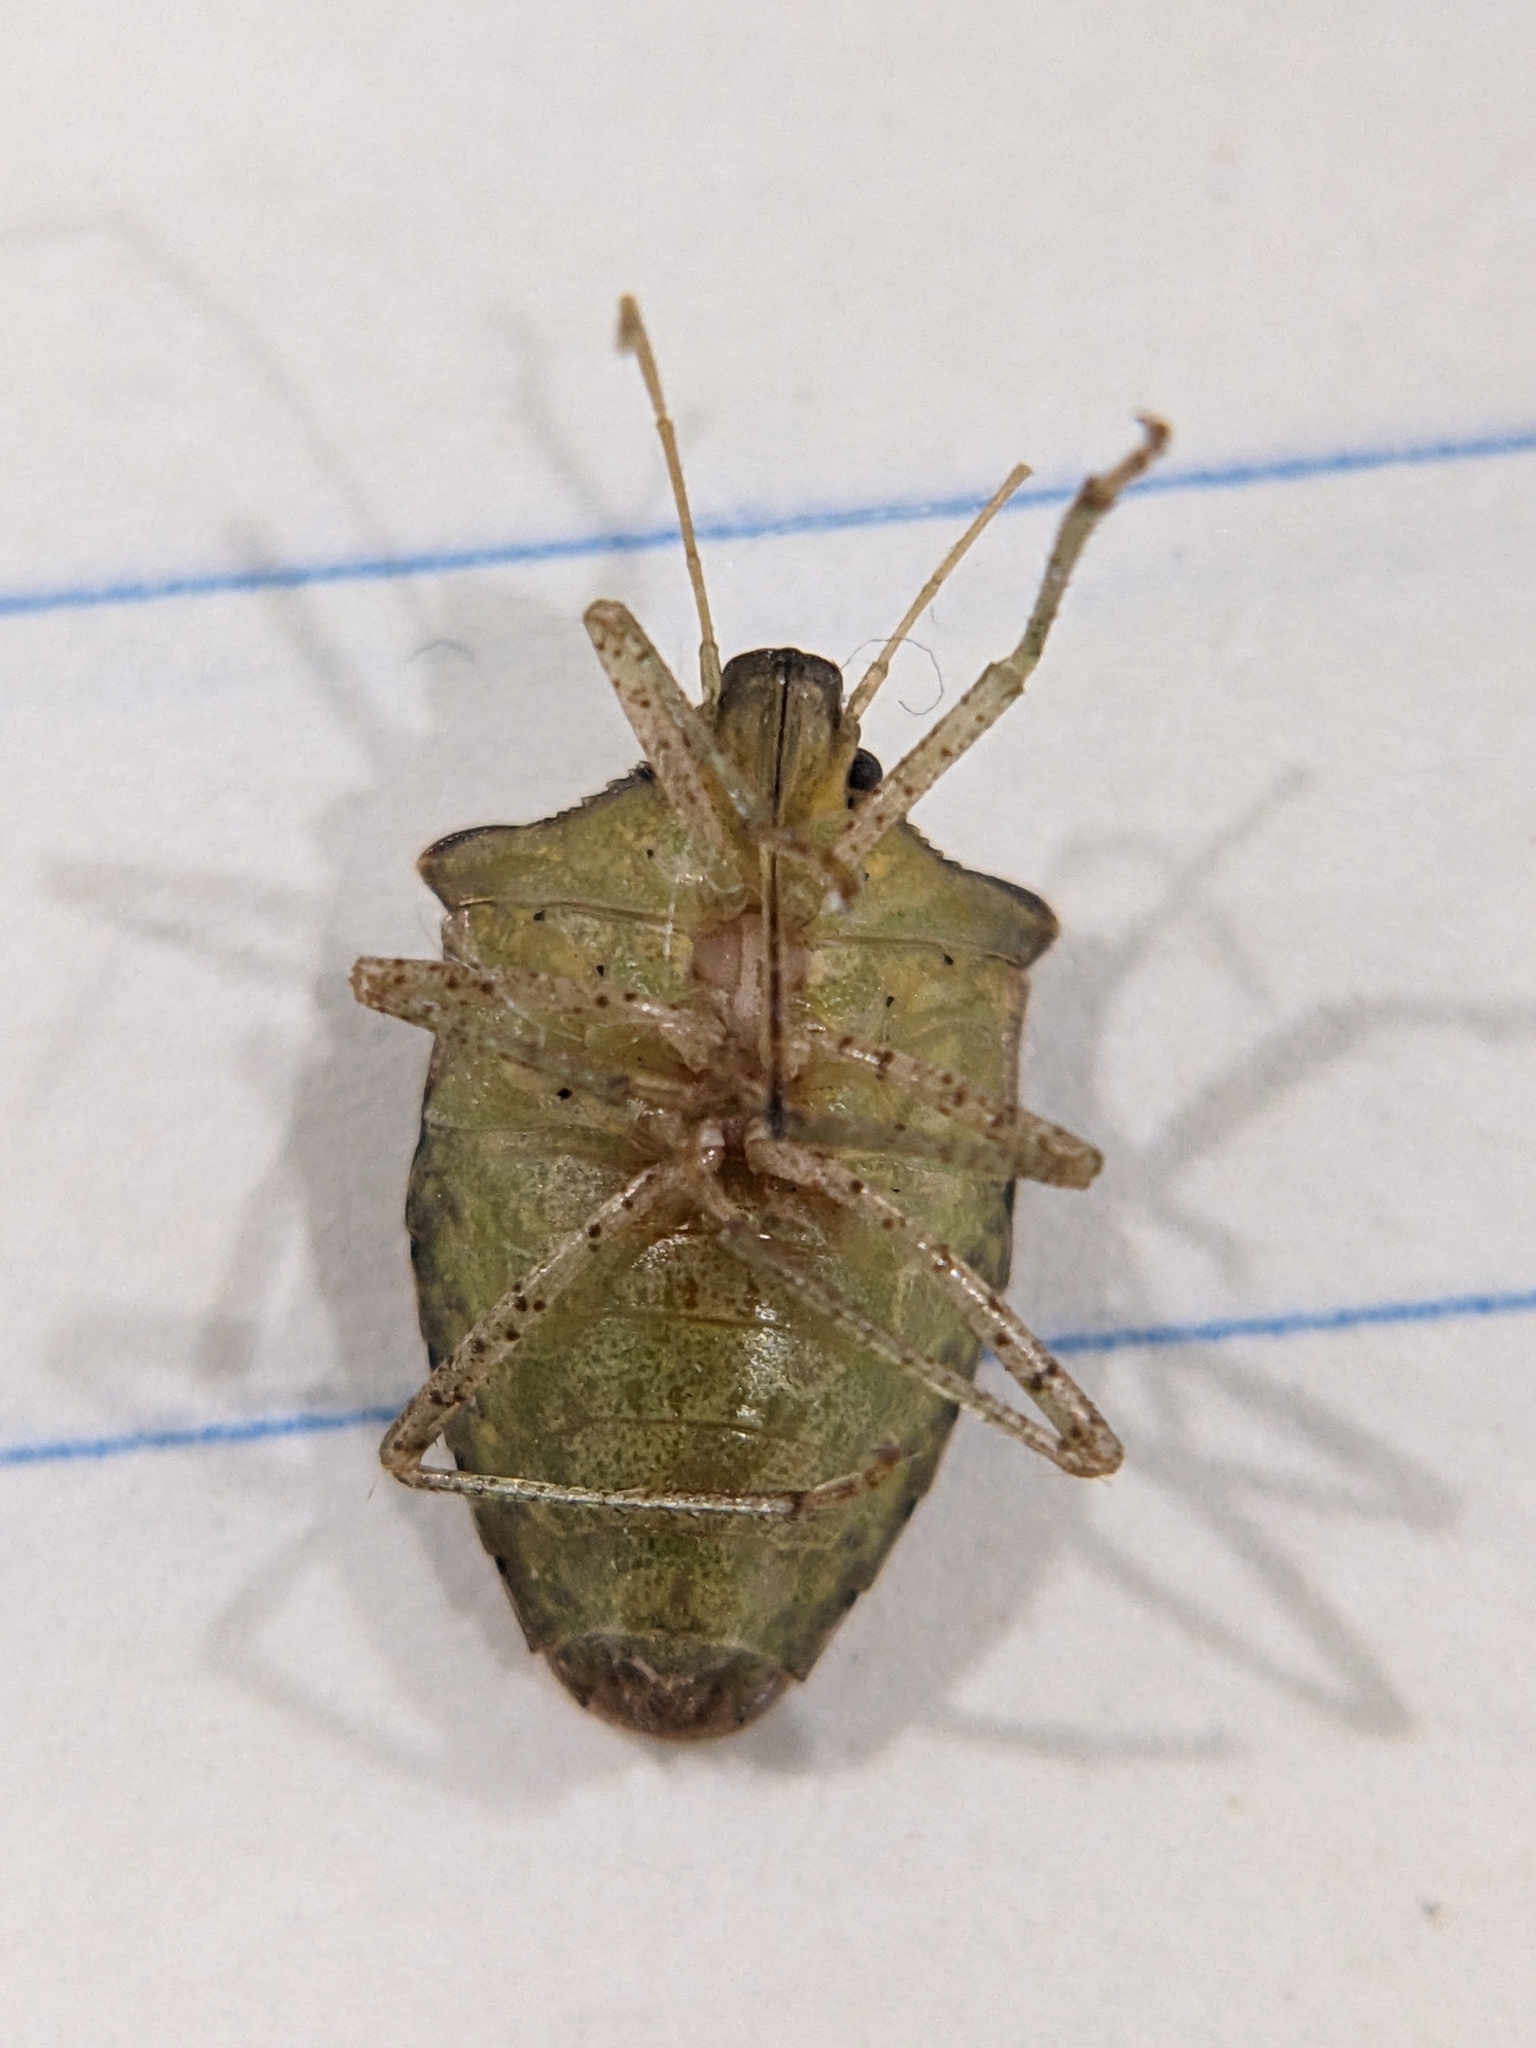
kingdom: Animalia
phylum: Arthropoda
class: Insecta
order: Hemiptera
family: Pentatomidae
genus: Euschistus
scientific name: Euschistus obscurus
